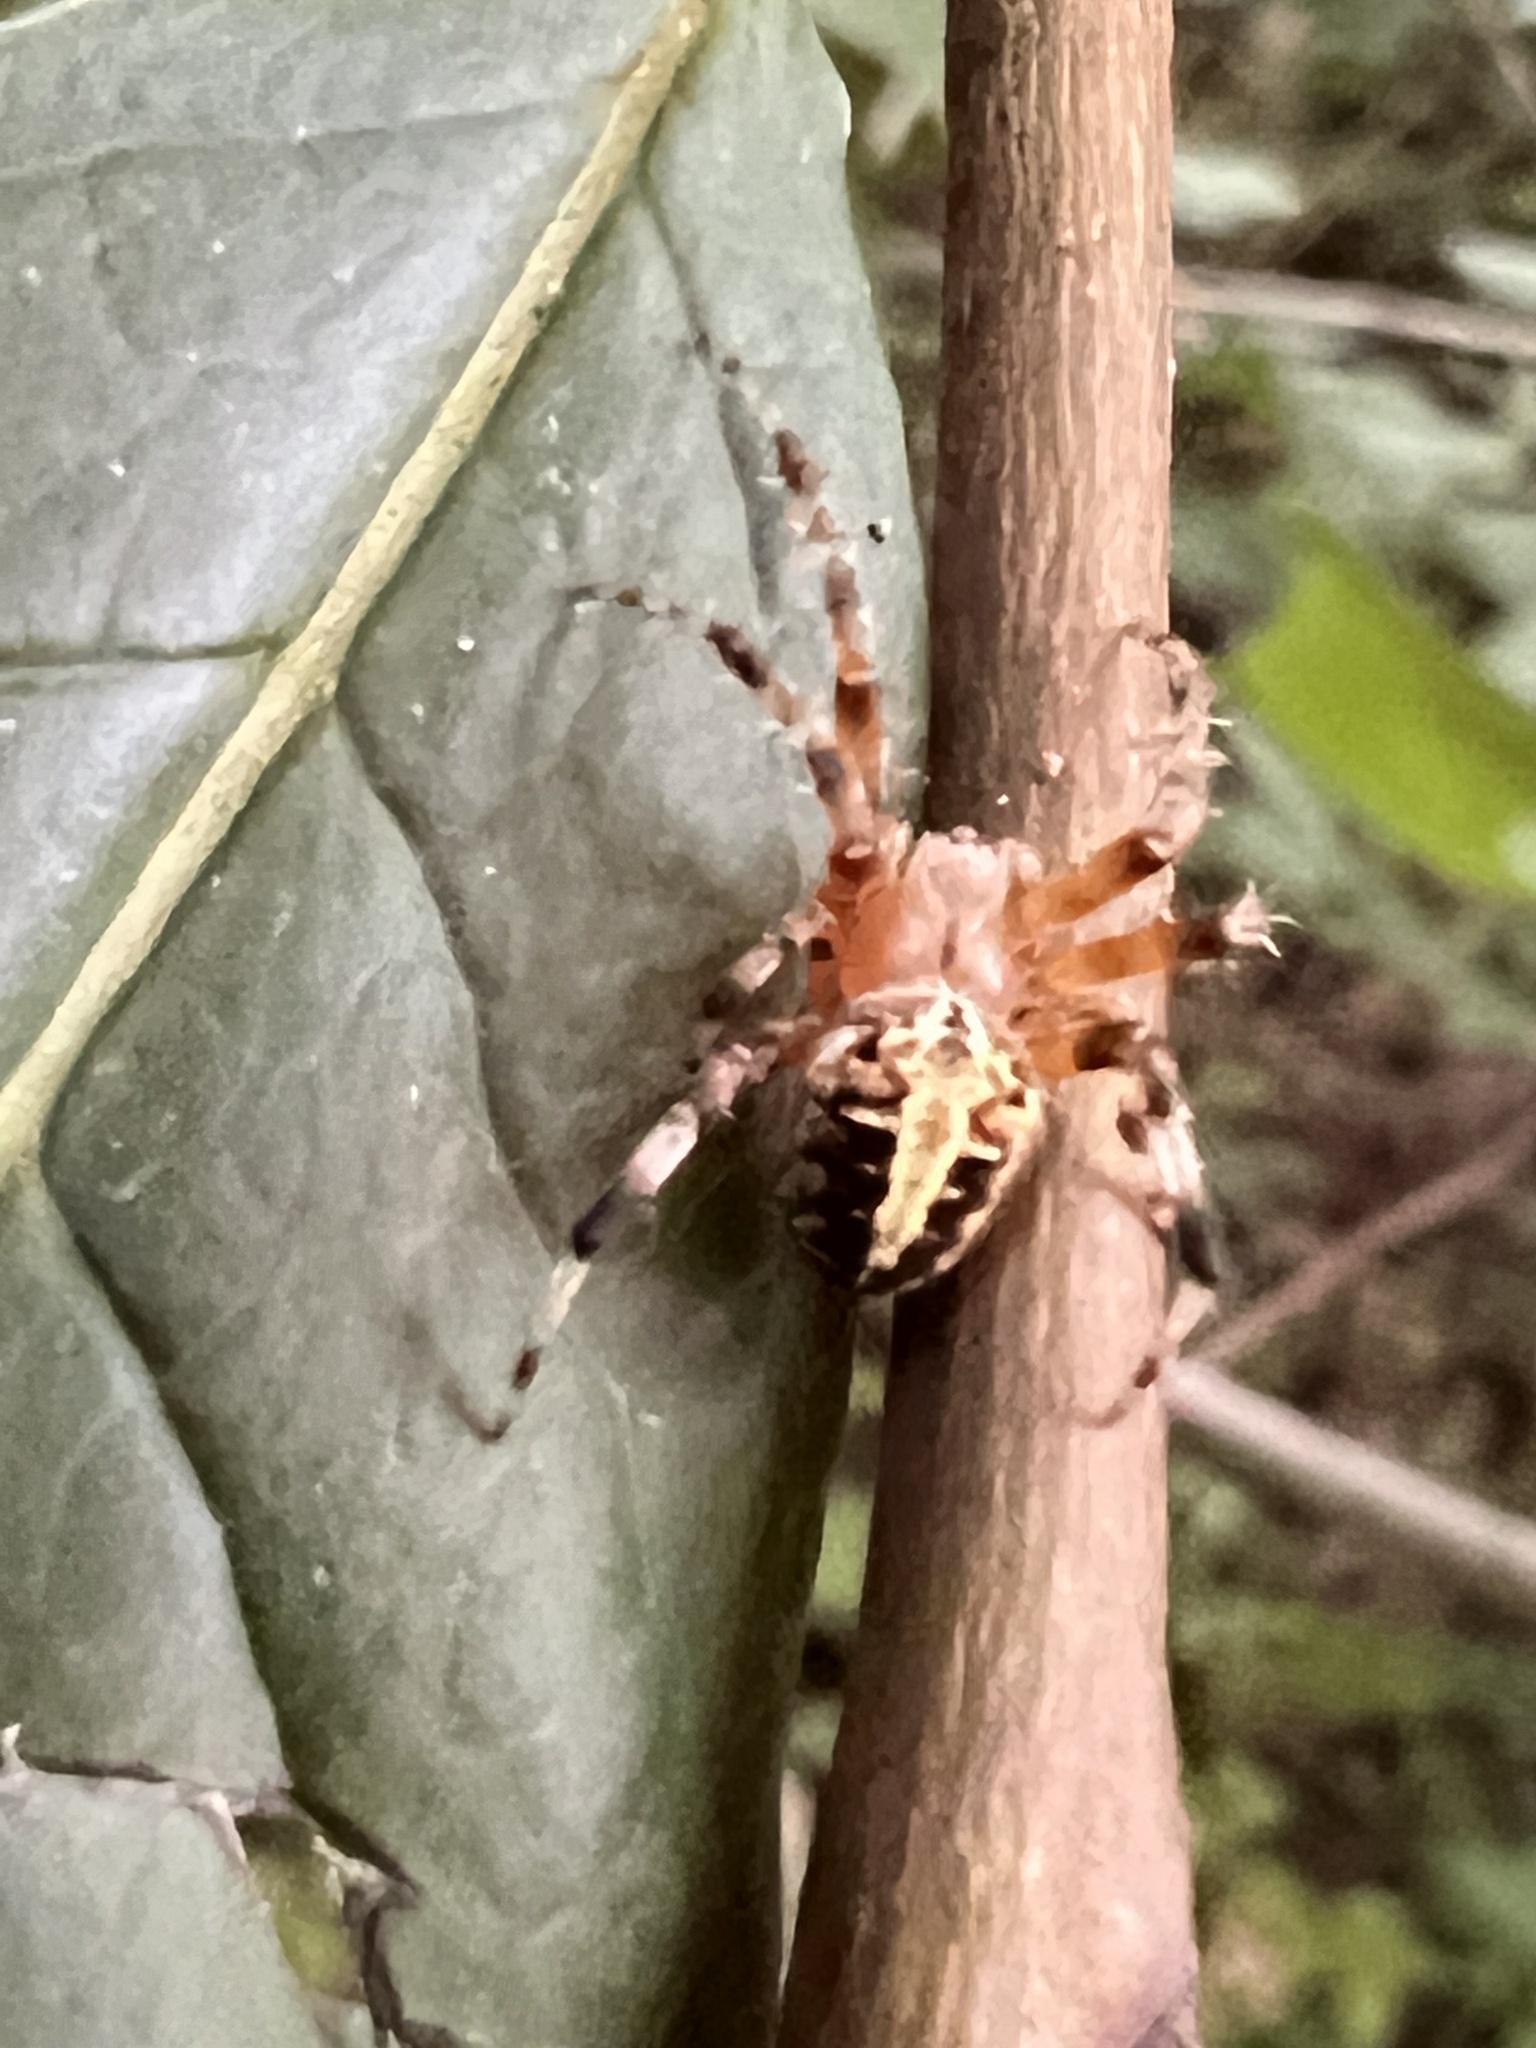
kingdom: Animalia
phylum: Arthropoda
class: Arachnida
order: Araneae
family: Araneidae
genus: Neoscona
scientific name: Neoscona domiciliorum
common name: Red-femured spotted orbweaver
